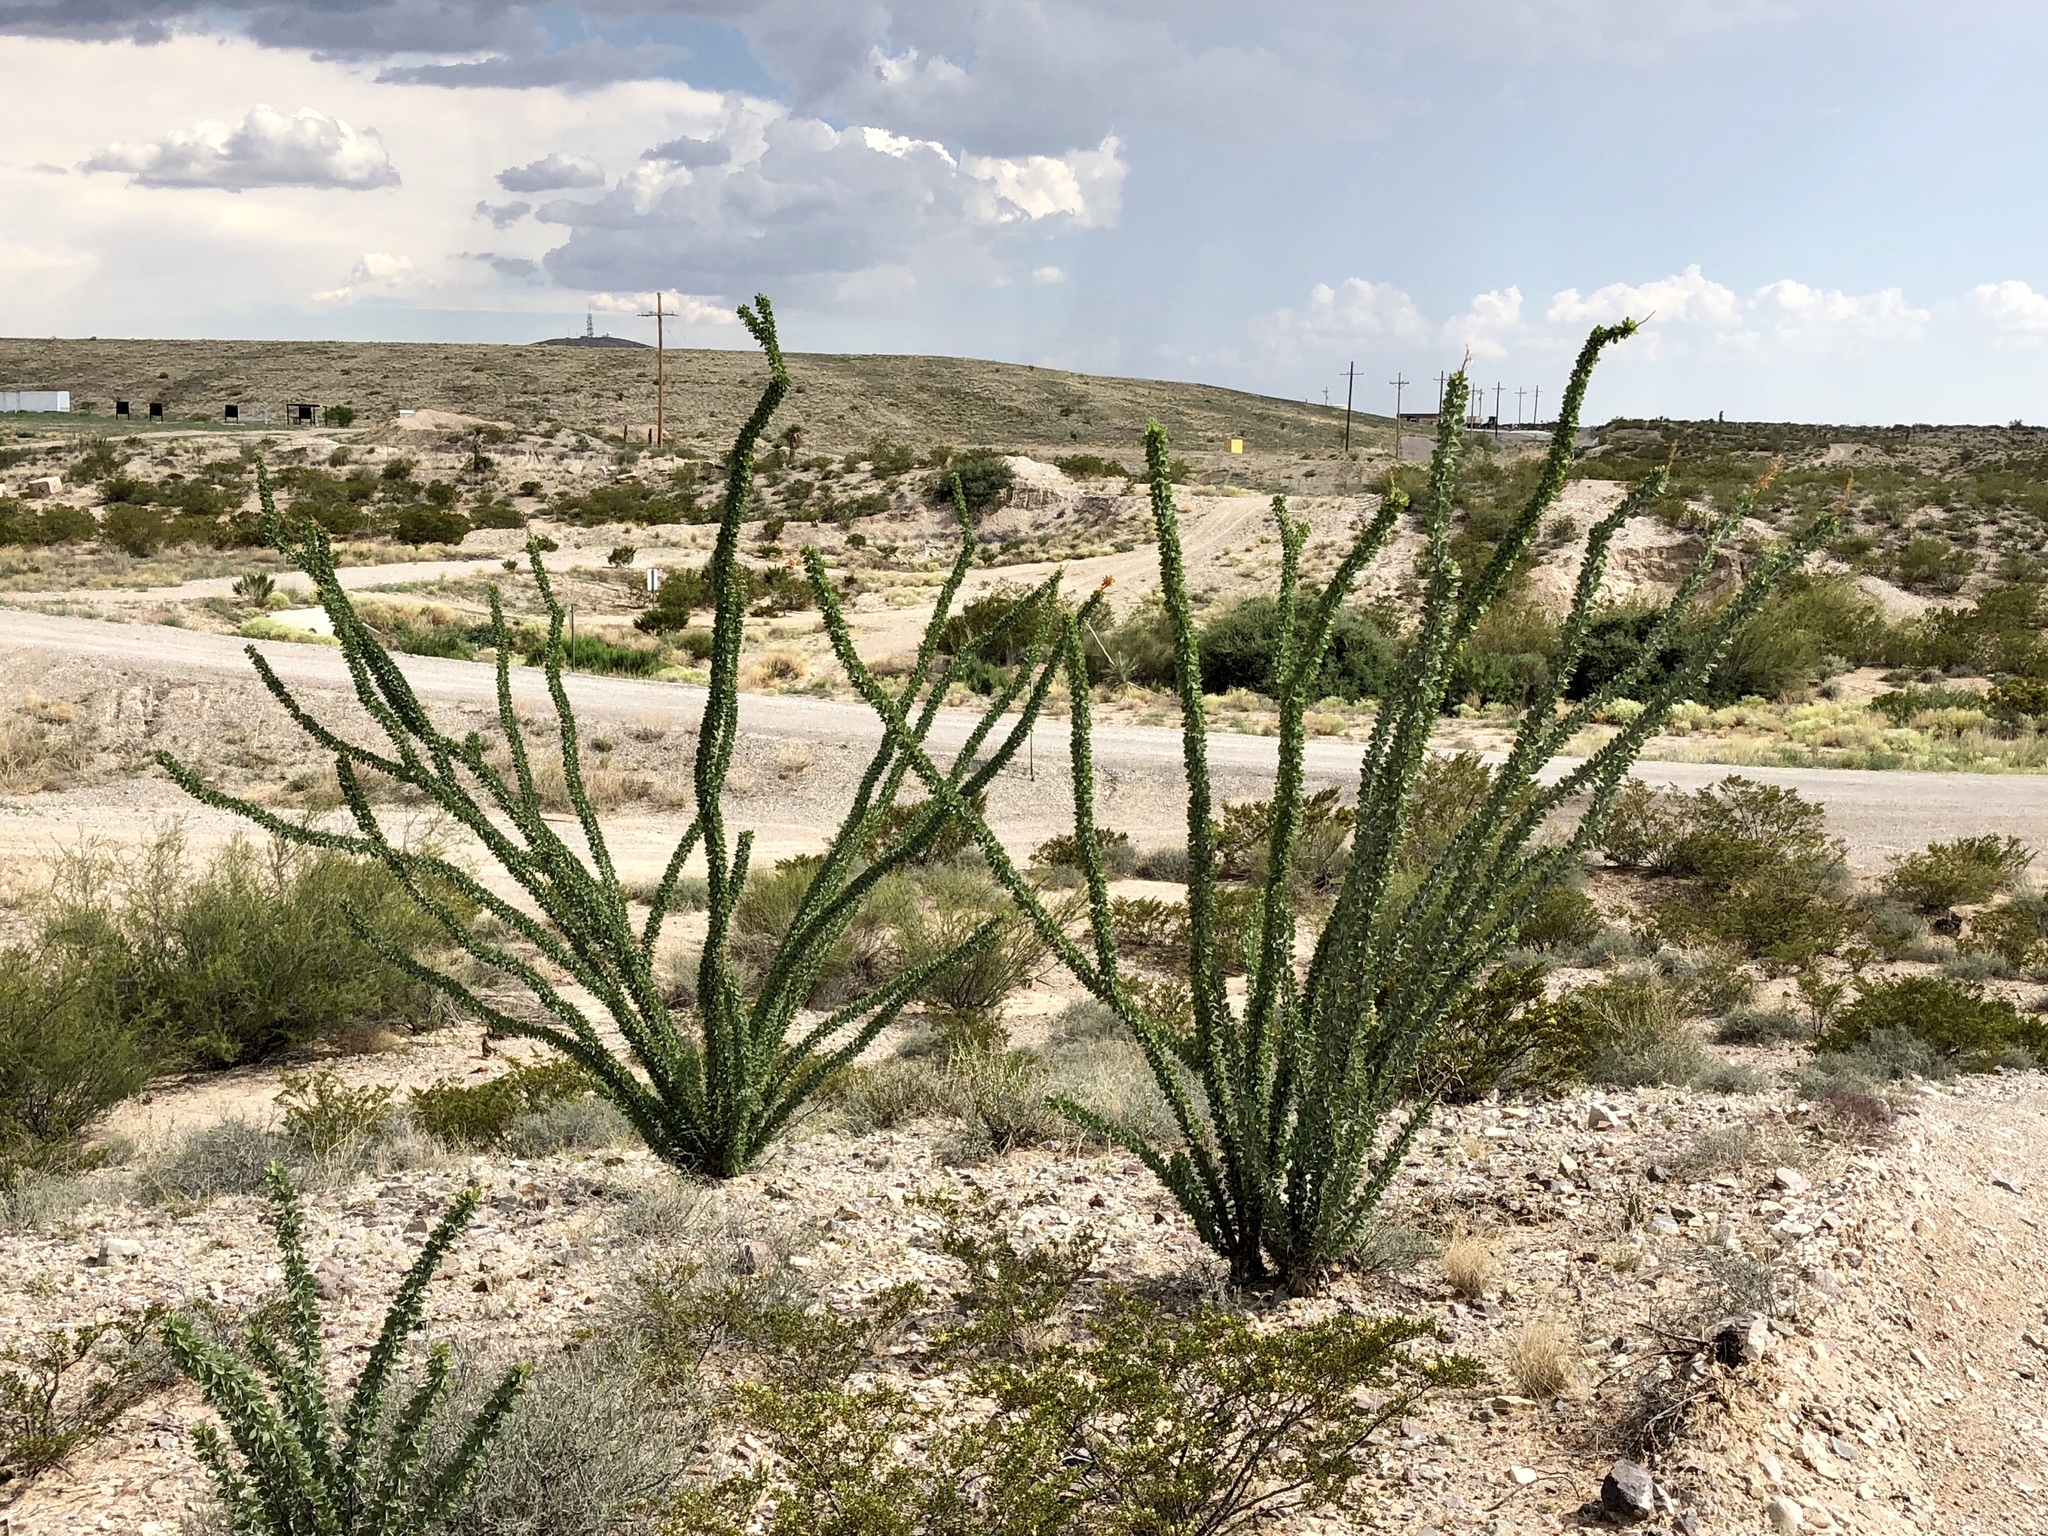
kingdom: Plantae
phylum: Tracheophyta
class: Magnoliopsida
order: Ericales
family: Fouquieriaceae
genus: Fouquieria
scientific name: Fouquieria splendens
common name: Vine-cactus
